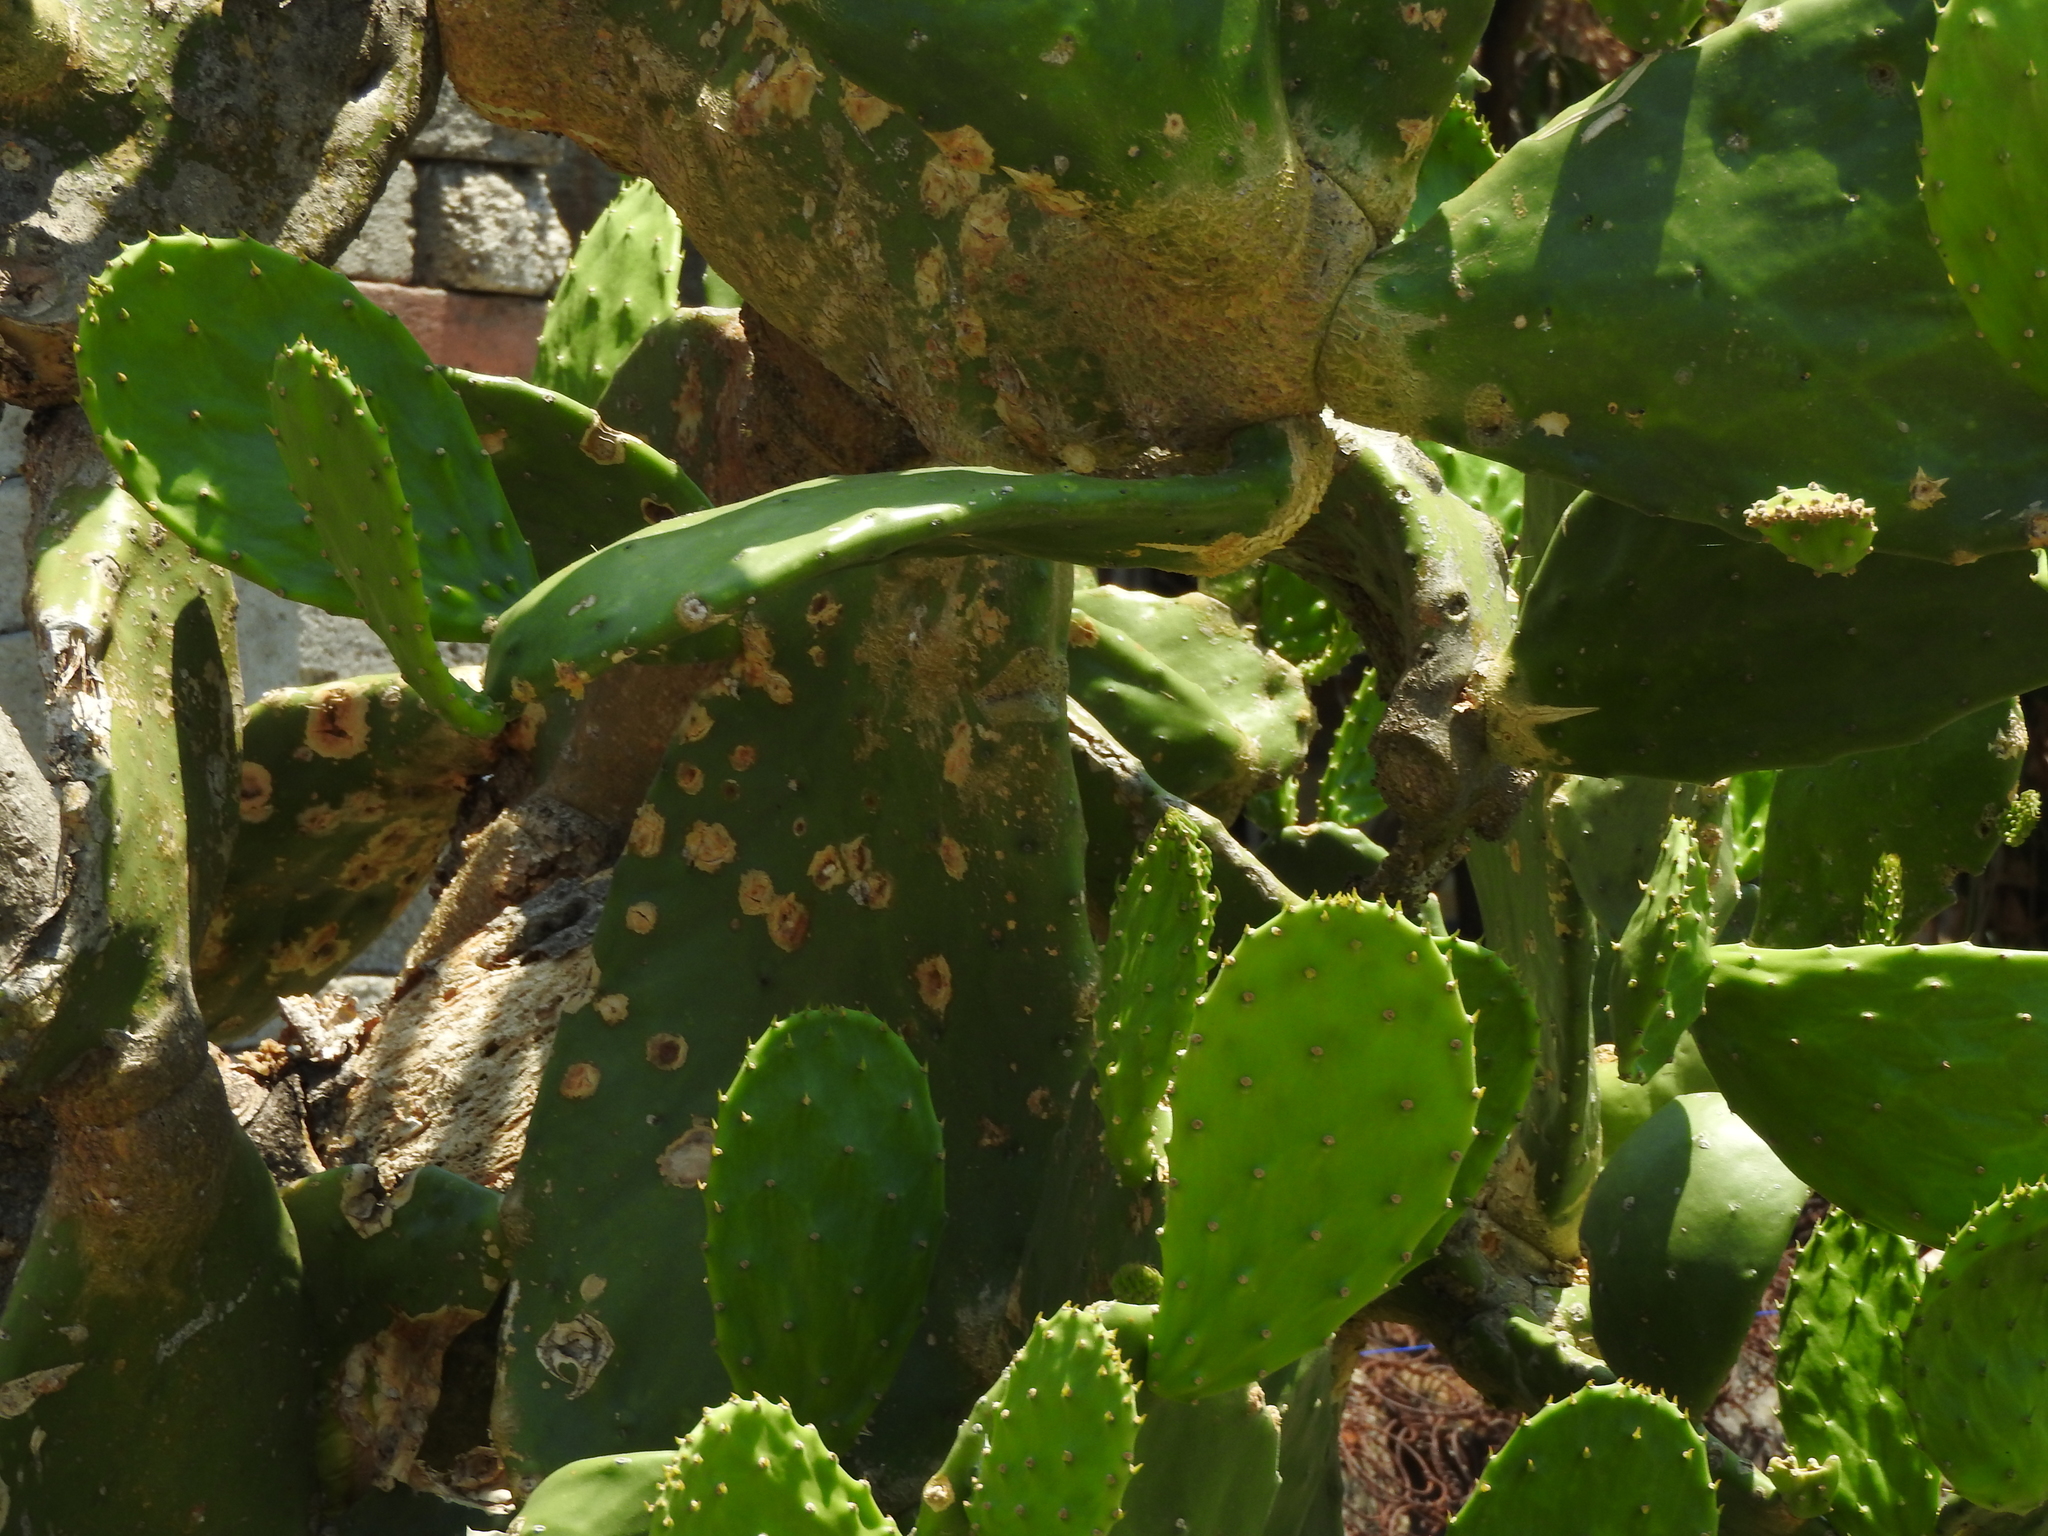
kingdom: Plantae
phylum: Tracheophyta
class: Magnoliopsida
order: Caryophyllales
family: Cactaceae
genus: Opuntia
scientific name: Opuntia ficus-indica
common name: Barbary fig
